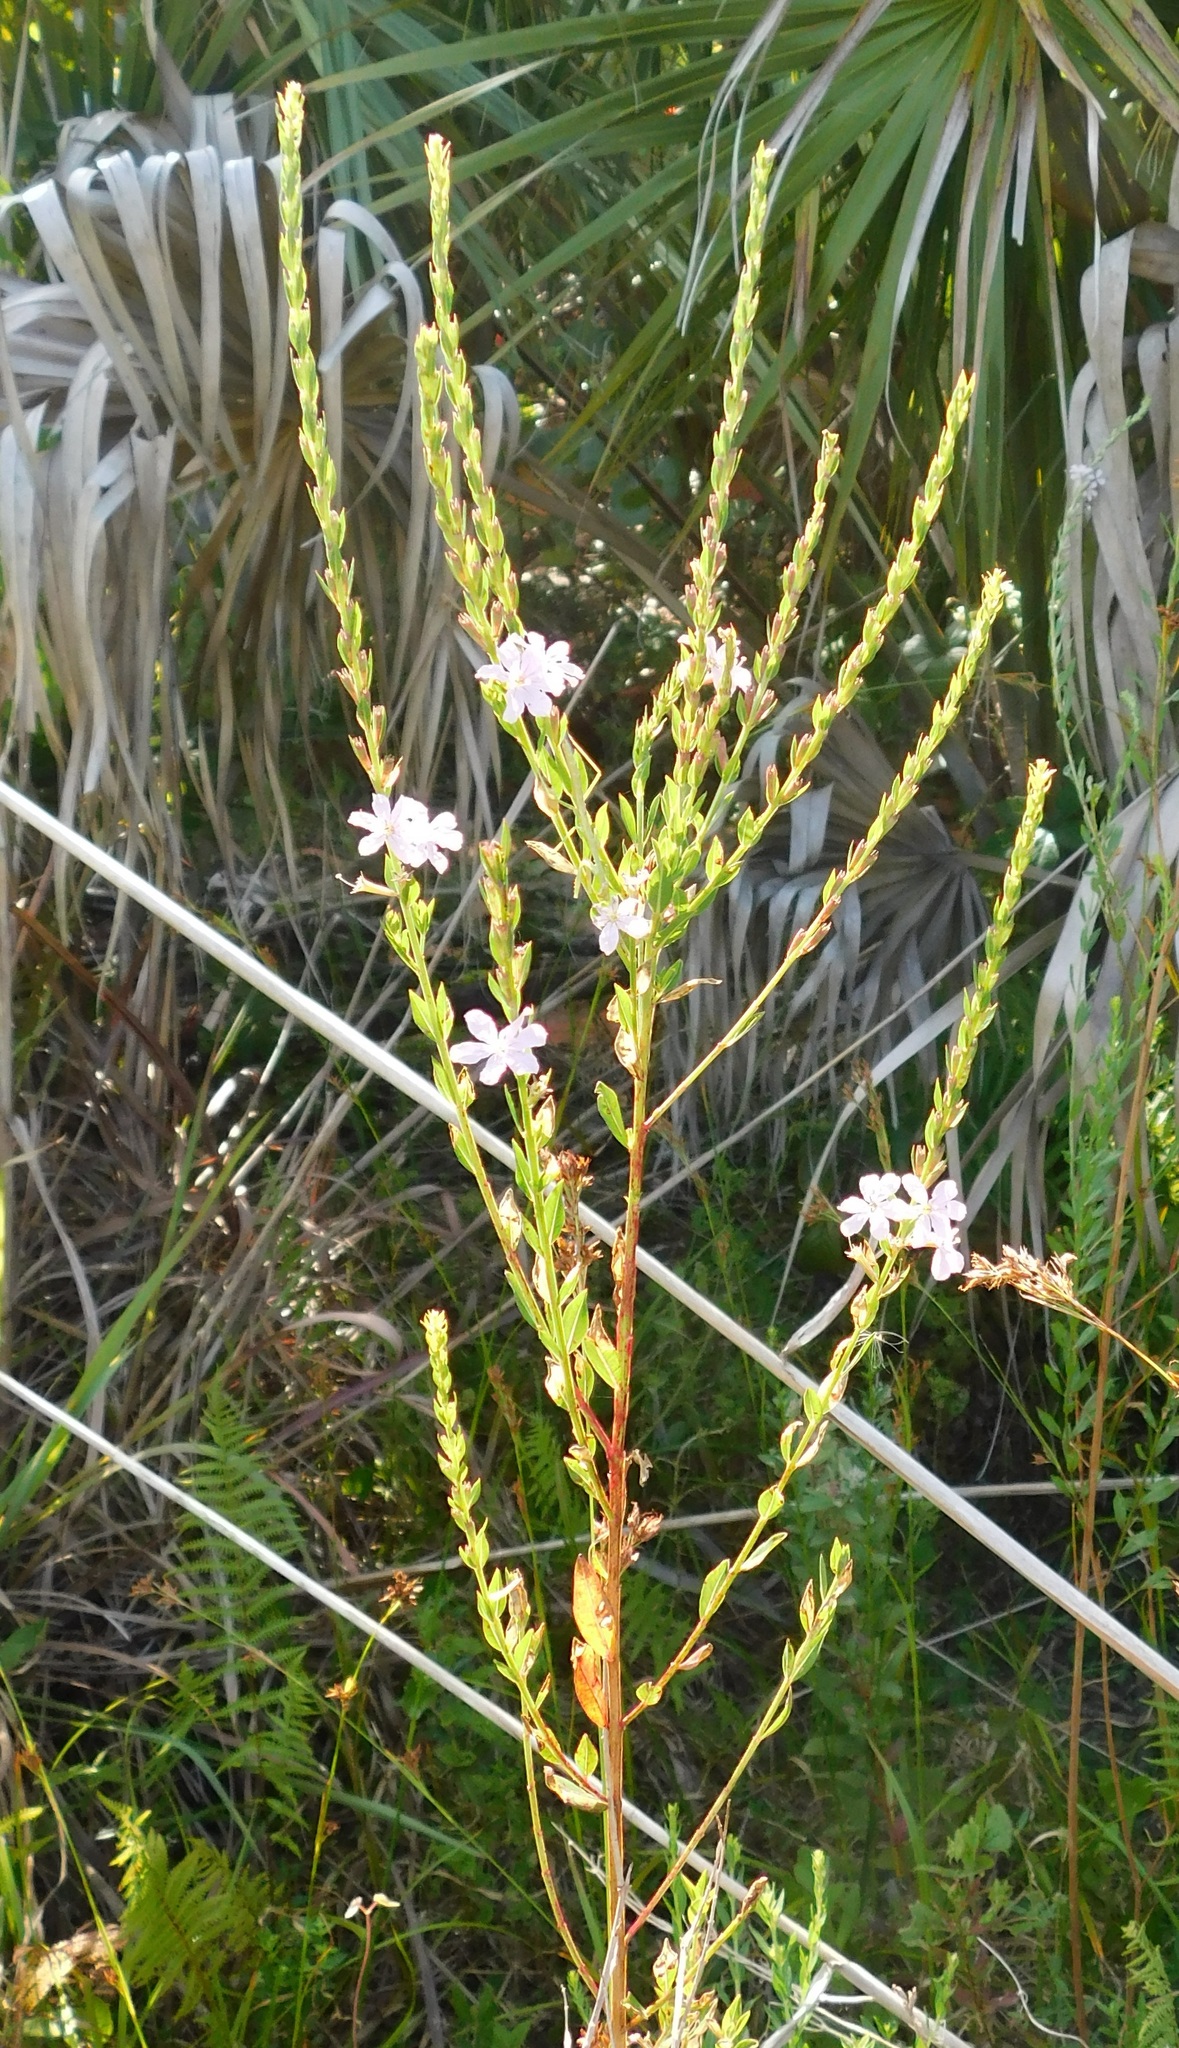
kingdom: Plantae
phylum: Tracheophyta
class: Magnoliopsida
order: Myrtales
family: Lythraceae
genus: Lythrum
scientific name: Lythrum alatum
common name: Winged loosestrife
